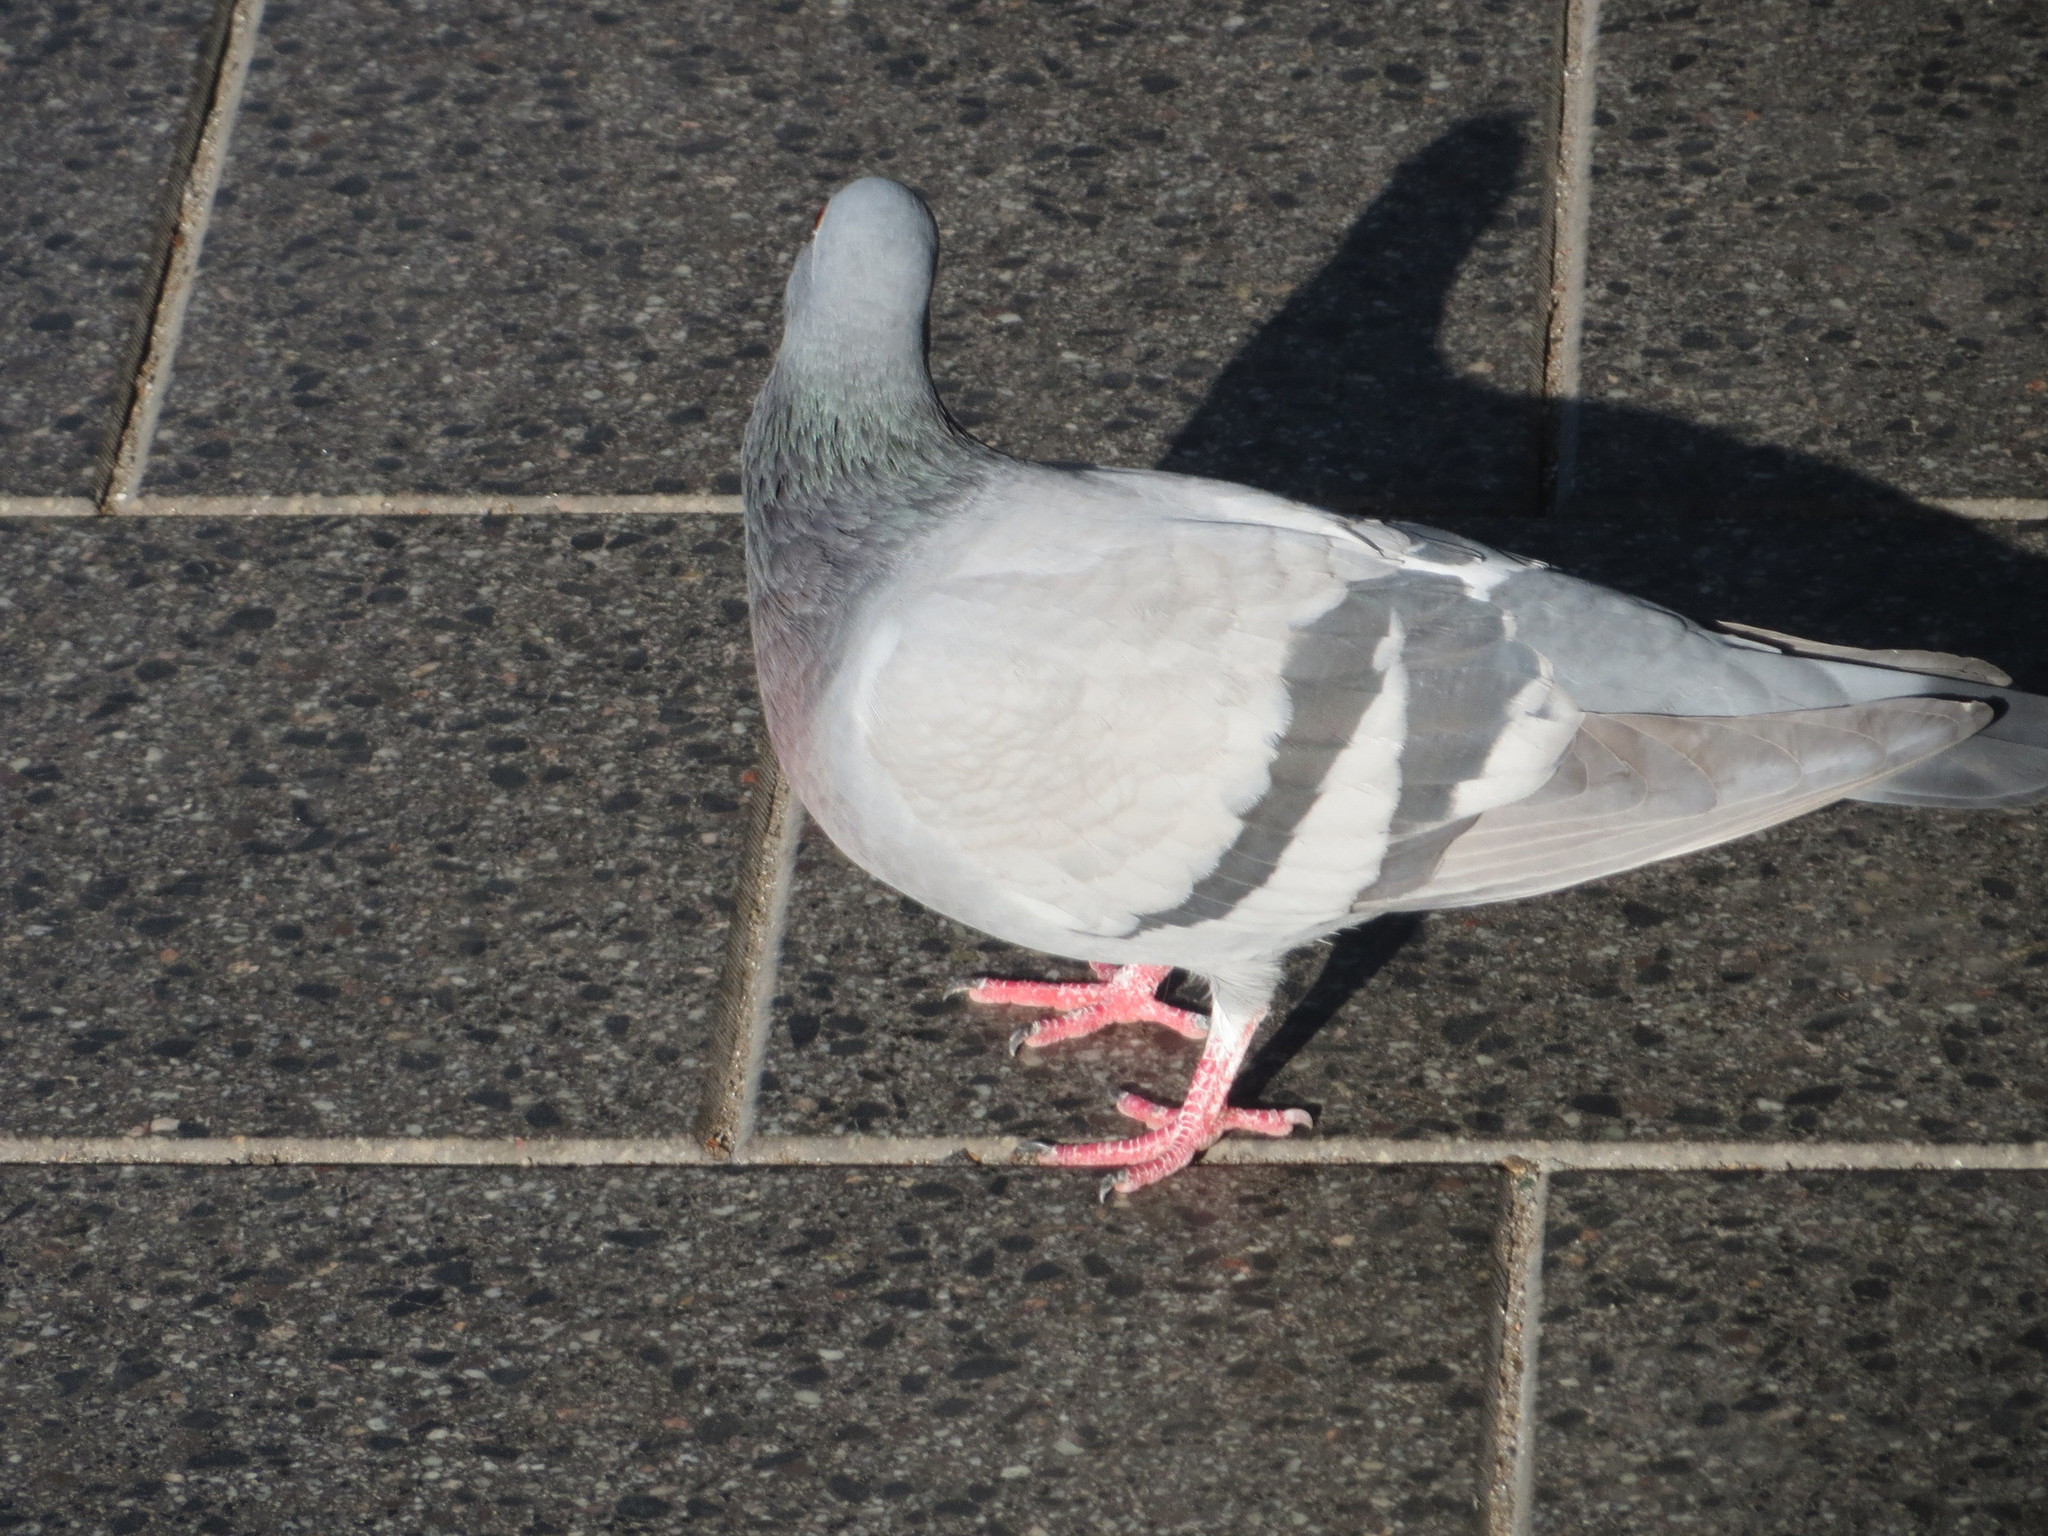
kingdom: Animalia
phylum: Chordata
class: Aves
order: Columbiformes
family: Columbidae
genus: Columba
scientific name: Columba livia
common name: Rock pigeon
